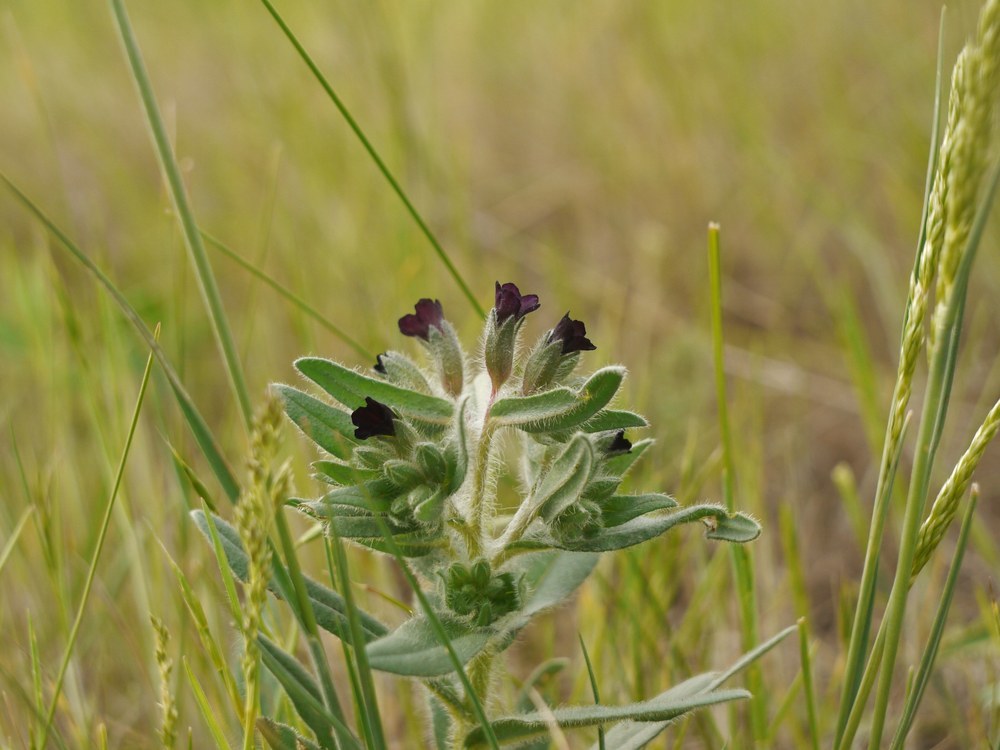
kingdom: Plantae
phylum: Tracheophyta
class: Magnoliopsida
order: Boraginales
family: Boraginaceae
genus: Nonea
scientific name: Nonea pulla
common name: Brown nonea
